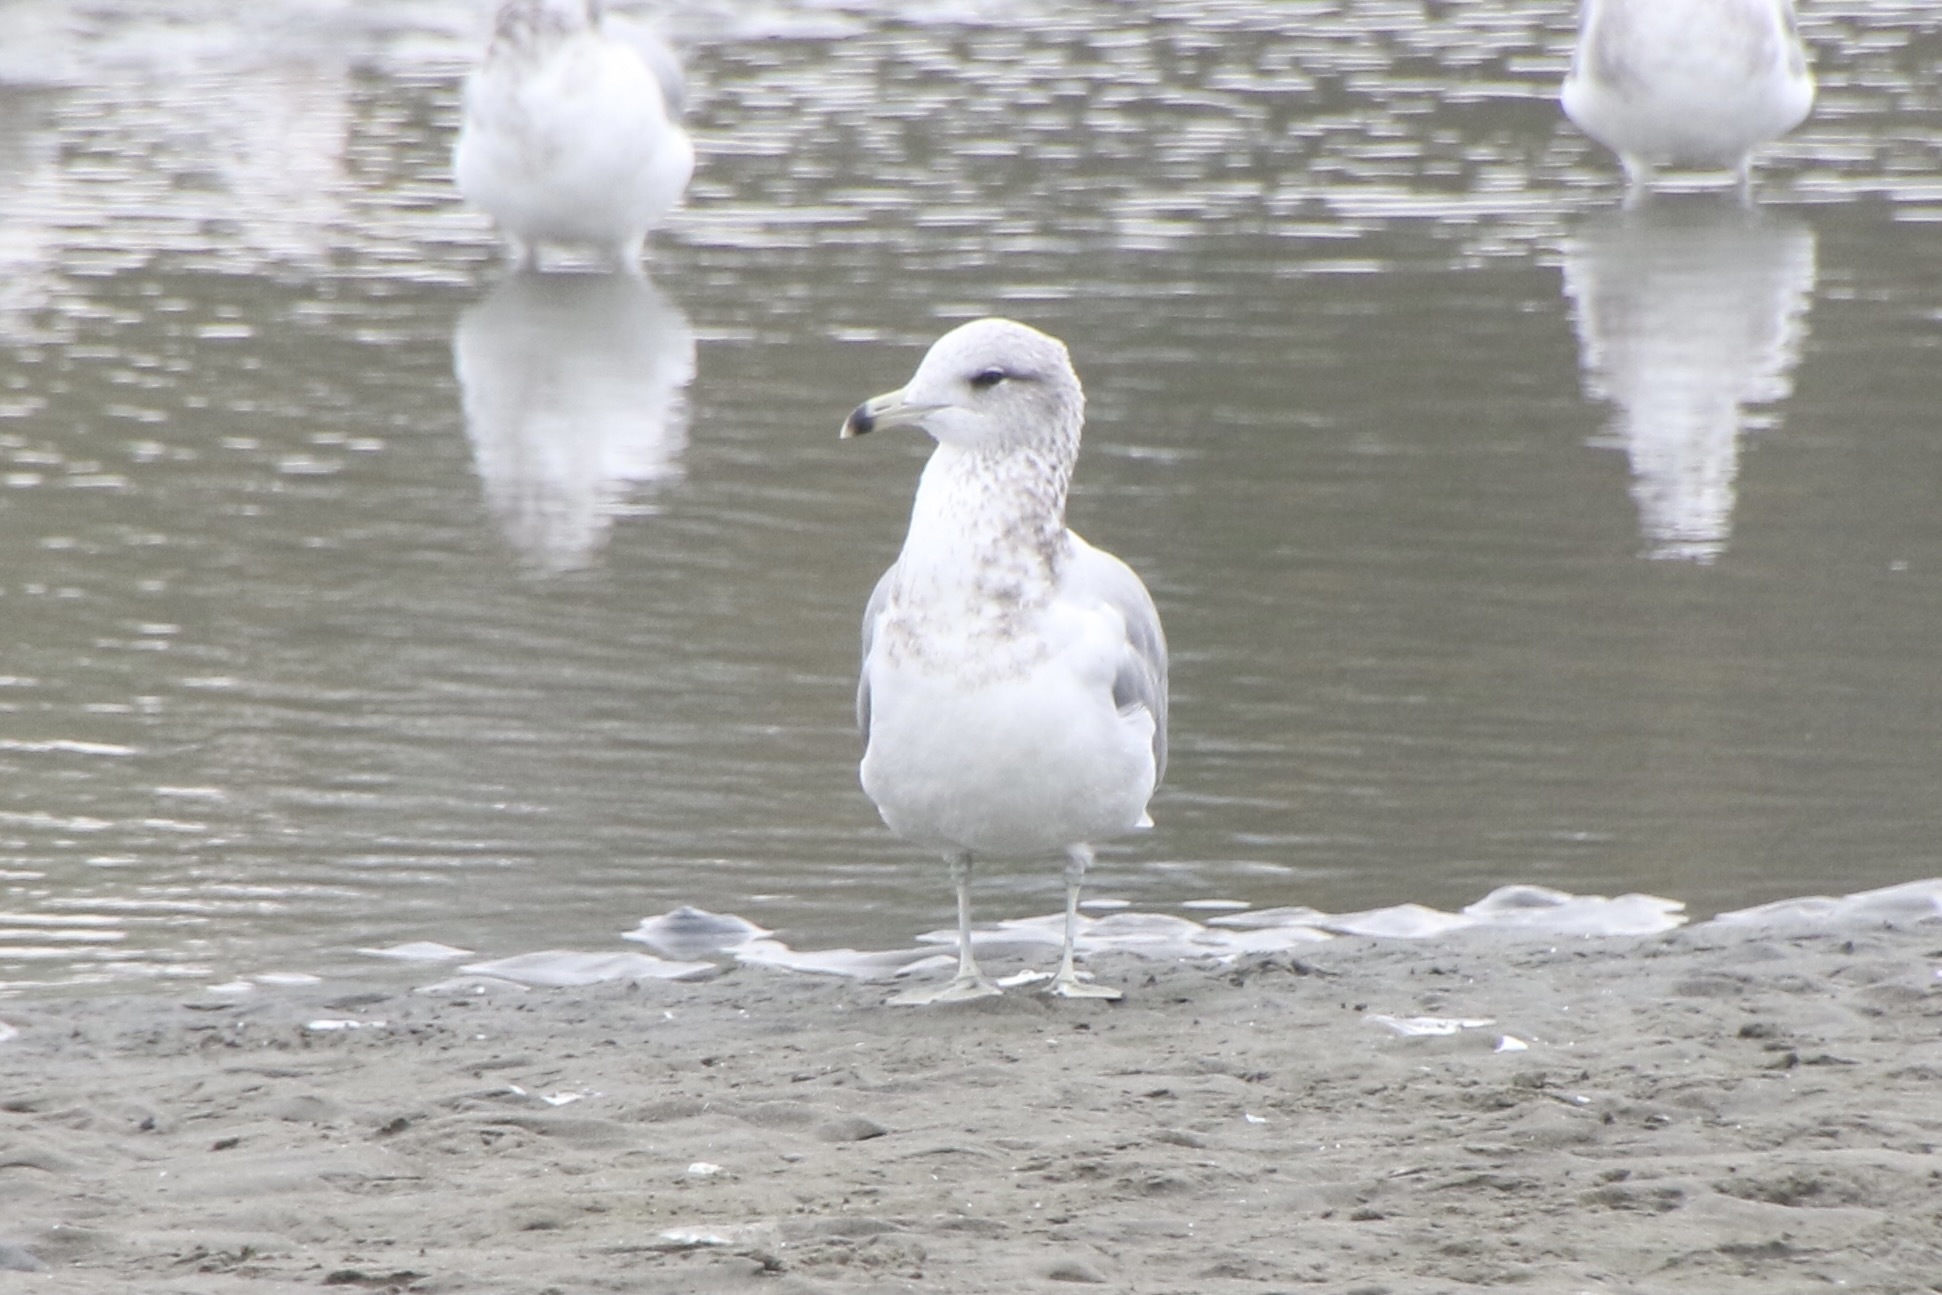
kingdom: Animalia
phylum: Chordata
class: Aves
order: Charadriiformes
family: Laridae
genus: Larus
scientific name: Larus californicus
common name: California gull
